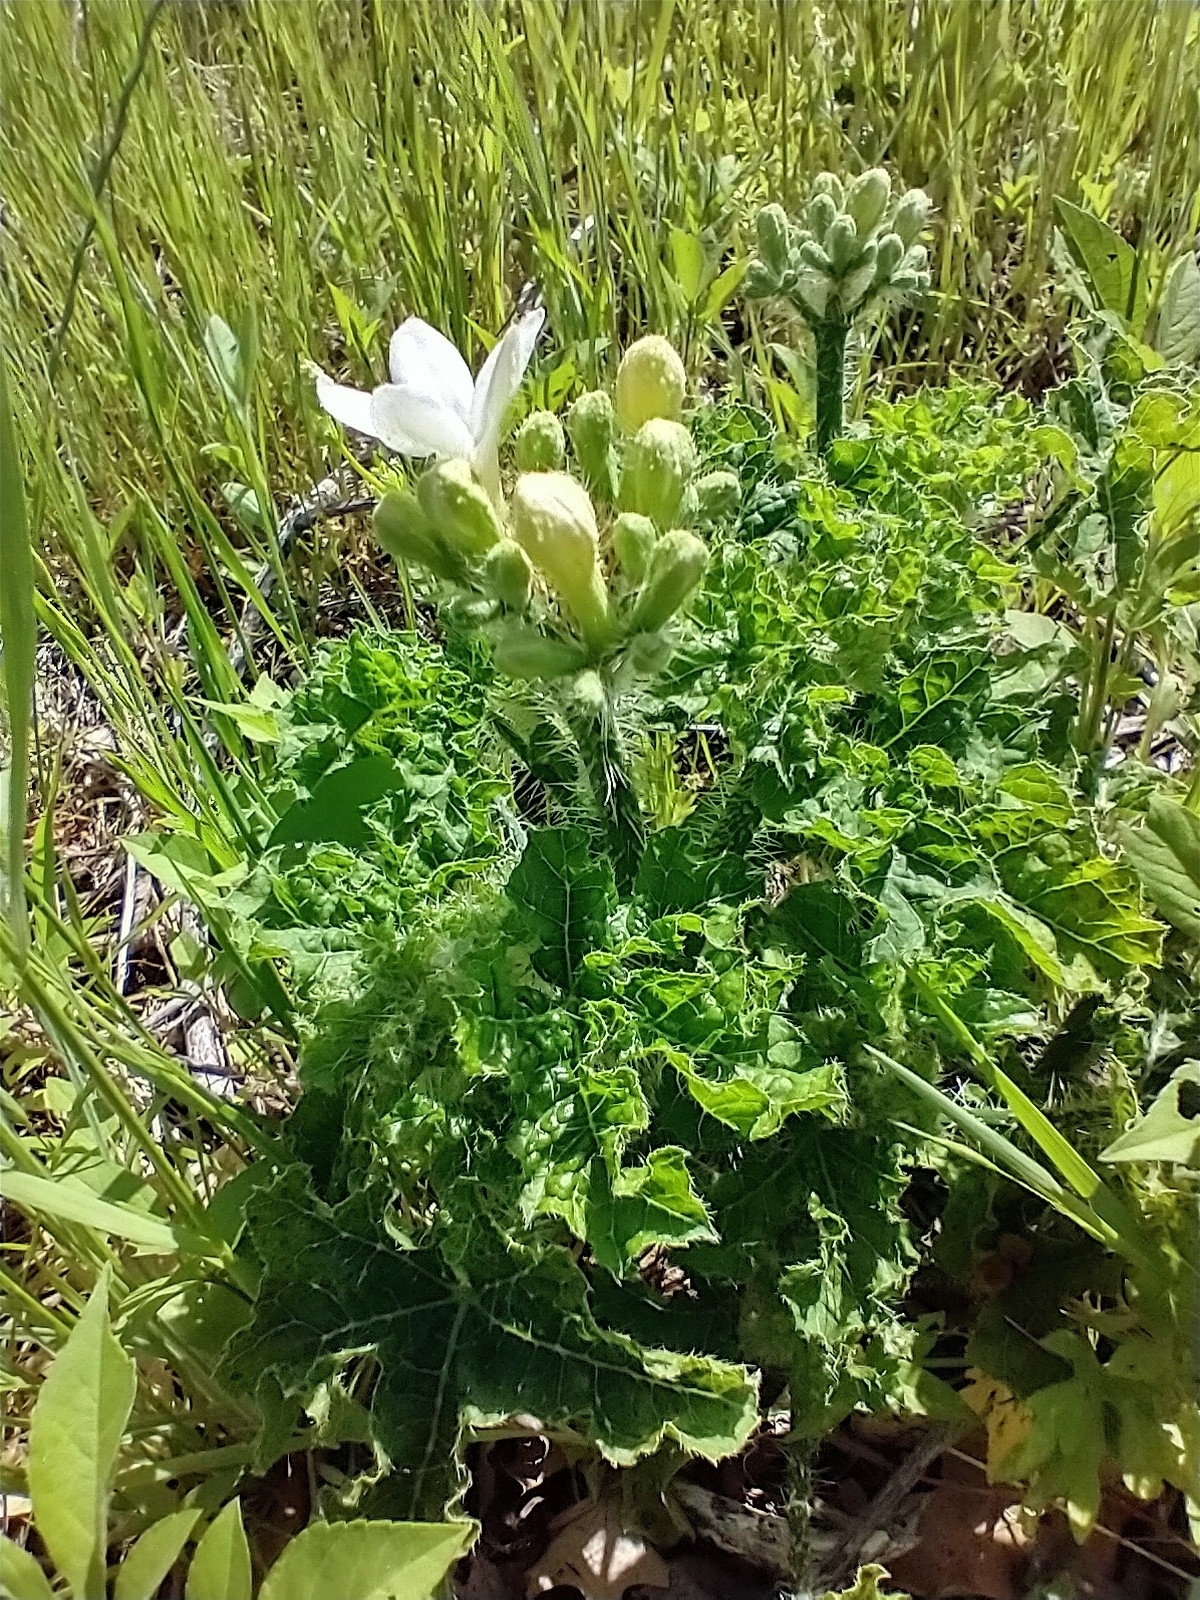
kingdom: Plantae
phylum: Tracheophyta
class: Magnoliopsida
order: Malpighiales
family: Euphorbiaceae
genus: Cnidoscolus
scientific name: Cnidoscolus texanus
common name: Texas bull-nettle
